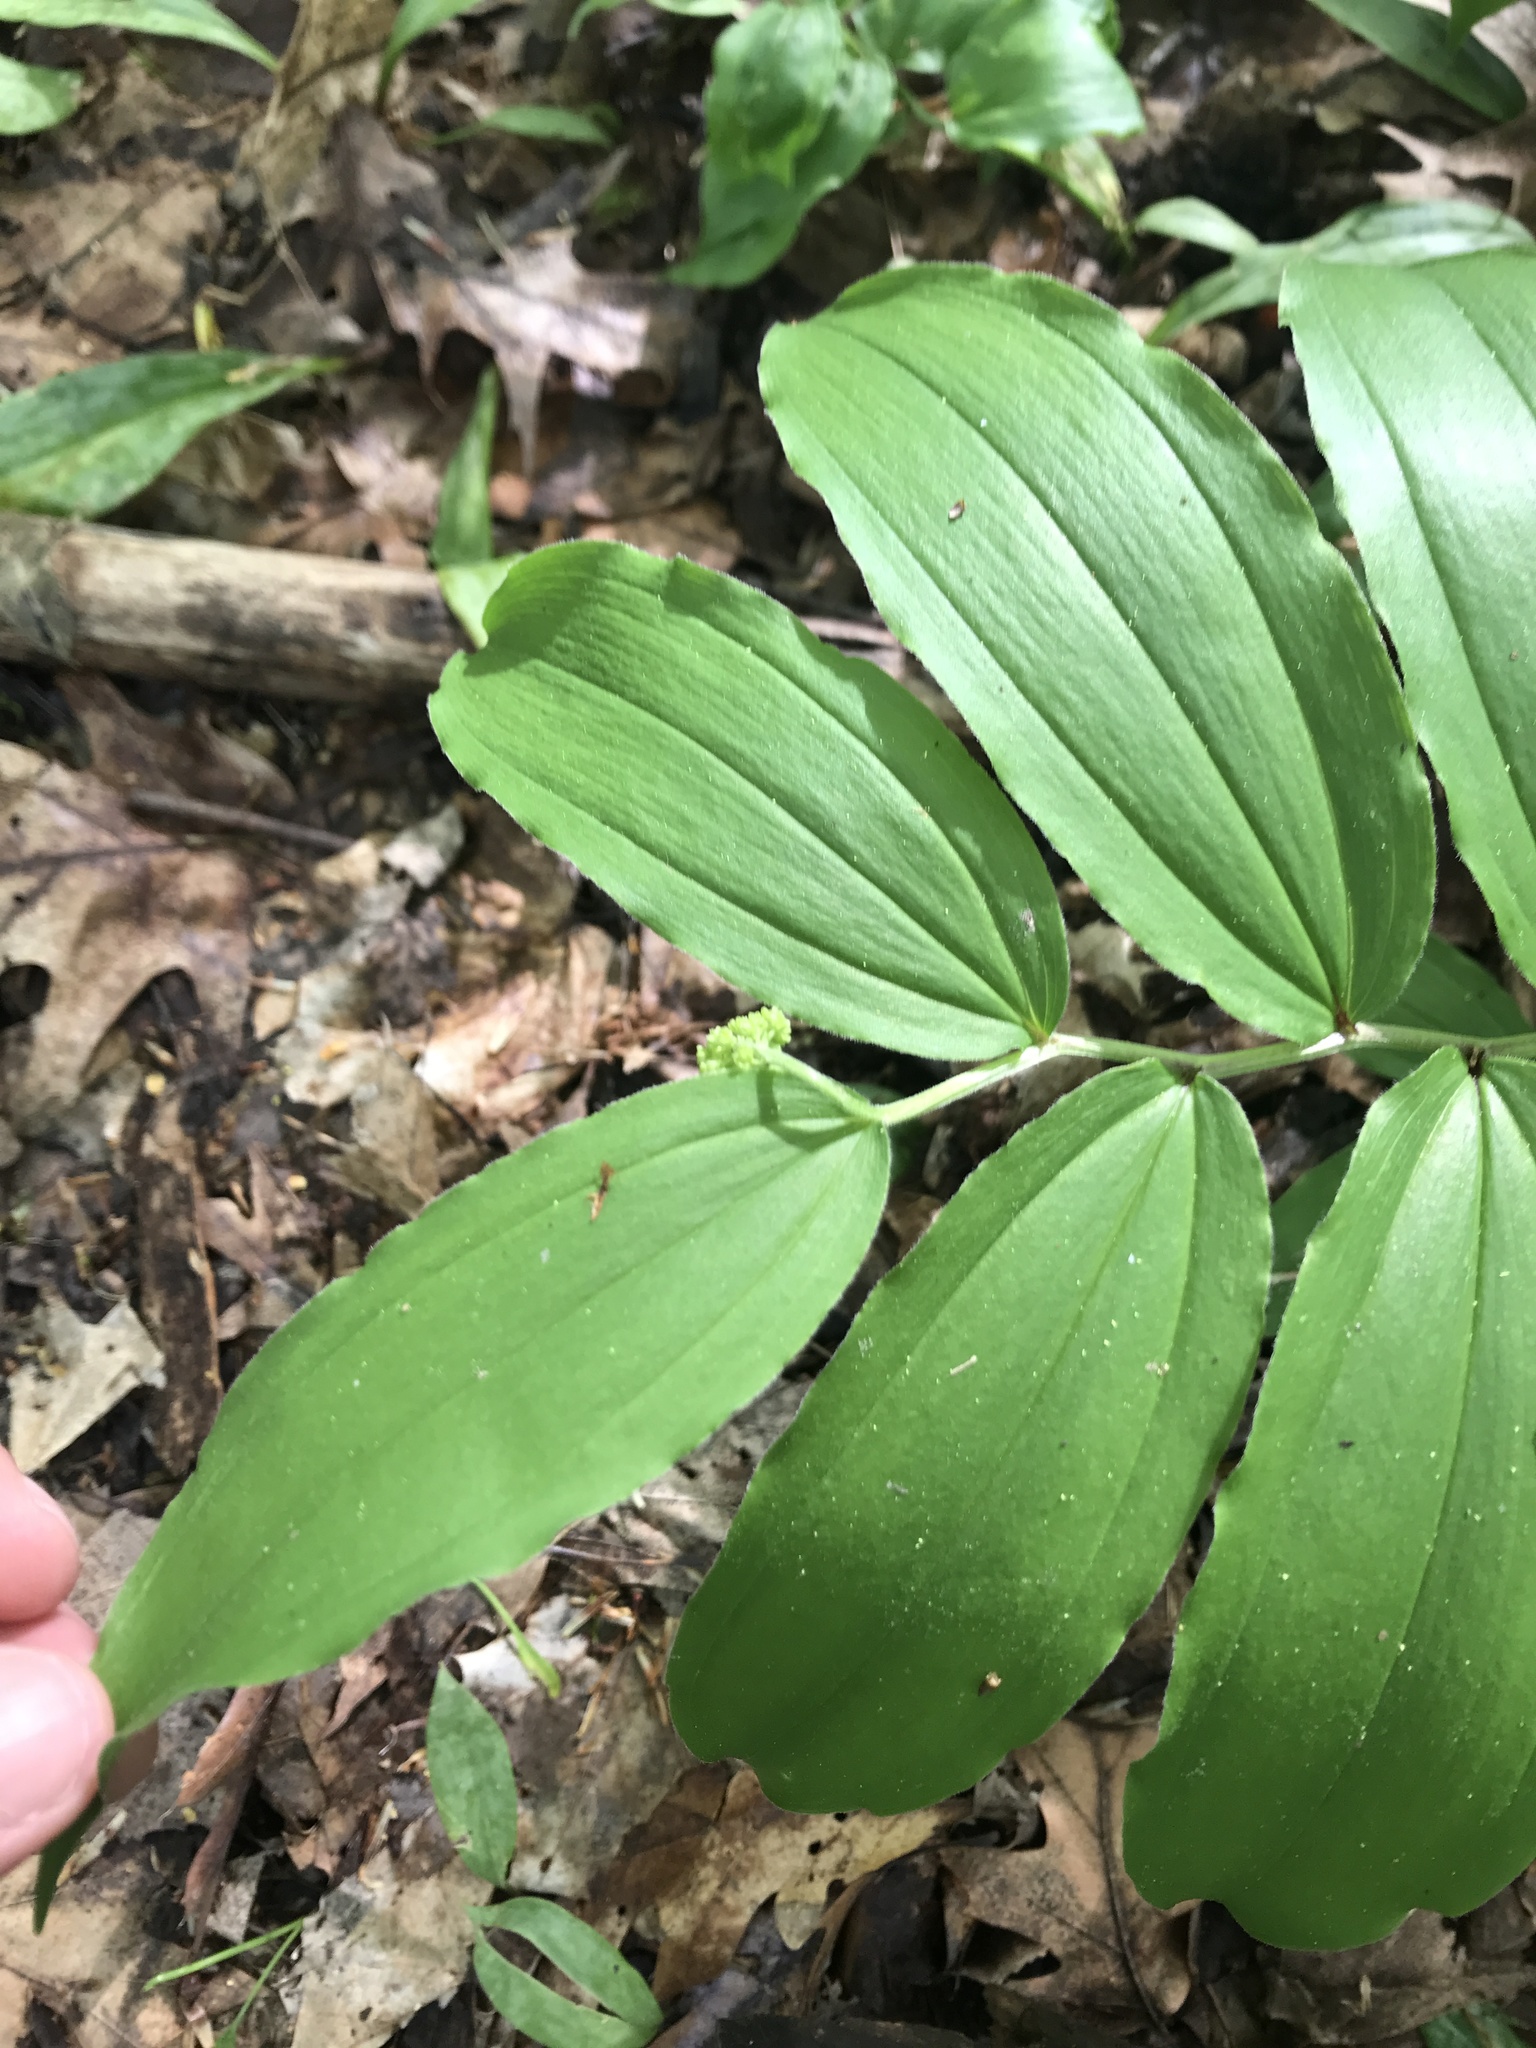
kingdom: Plantae
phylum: Tracheophyta
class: Liliopsida
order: Asparagales
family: Asparagaceae
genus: Maianthemum
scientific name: Maianthemum racemosum
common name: False spikenard
